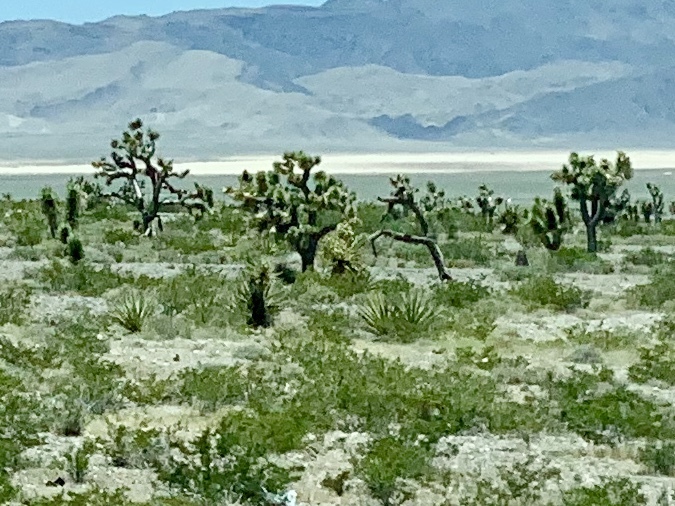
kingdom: Plantae
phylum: Tracheophyta
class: Liliopsida
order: Asparagales
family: Asparagaceae
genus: Yucca
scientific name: Yucca brevifolia
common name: Joshua tree
